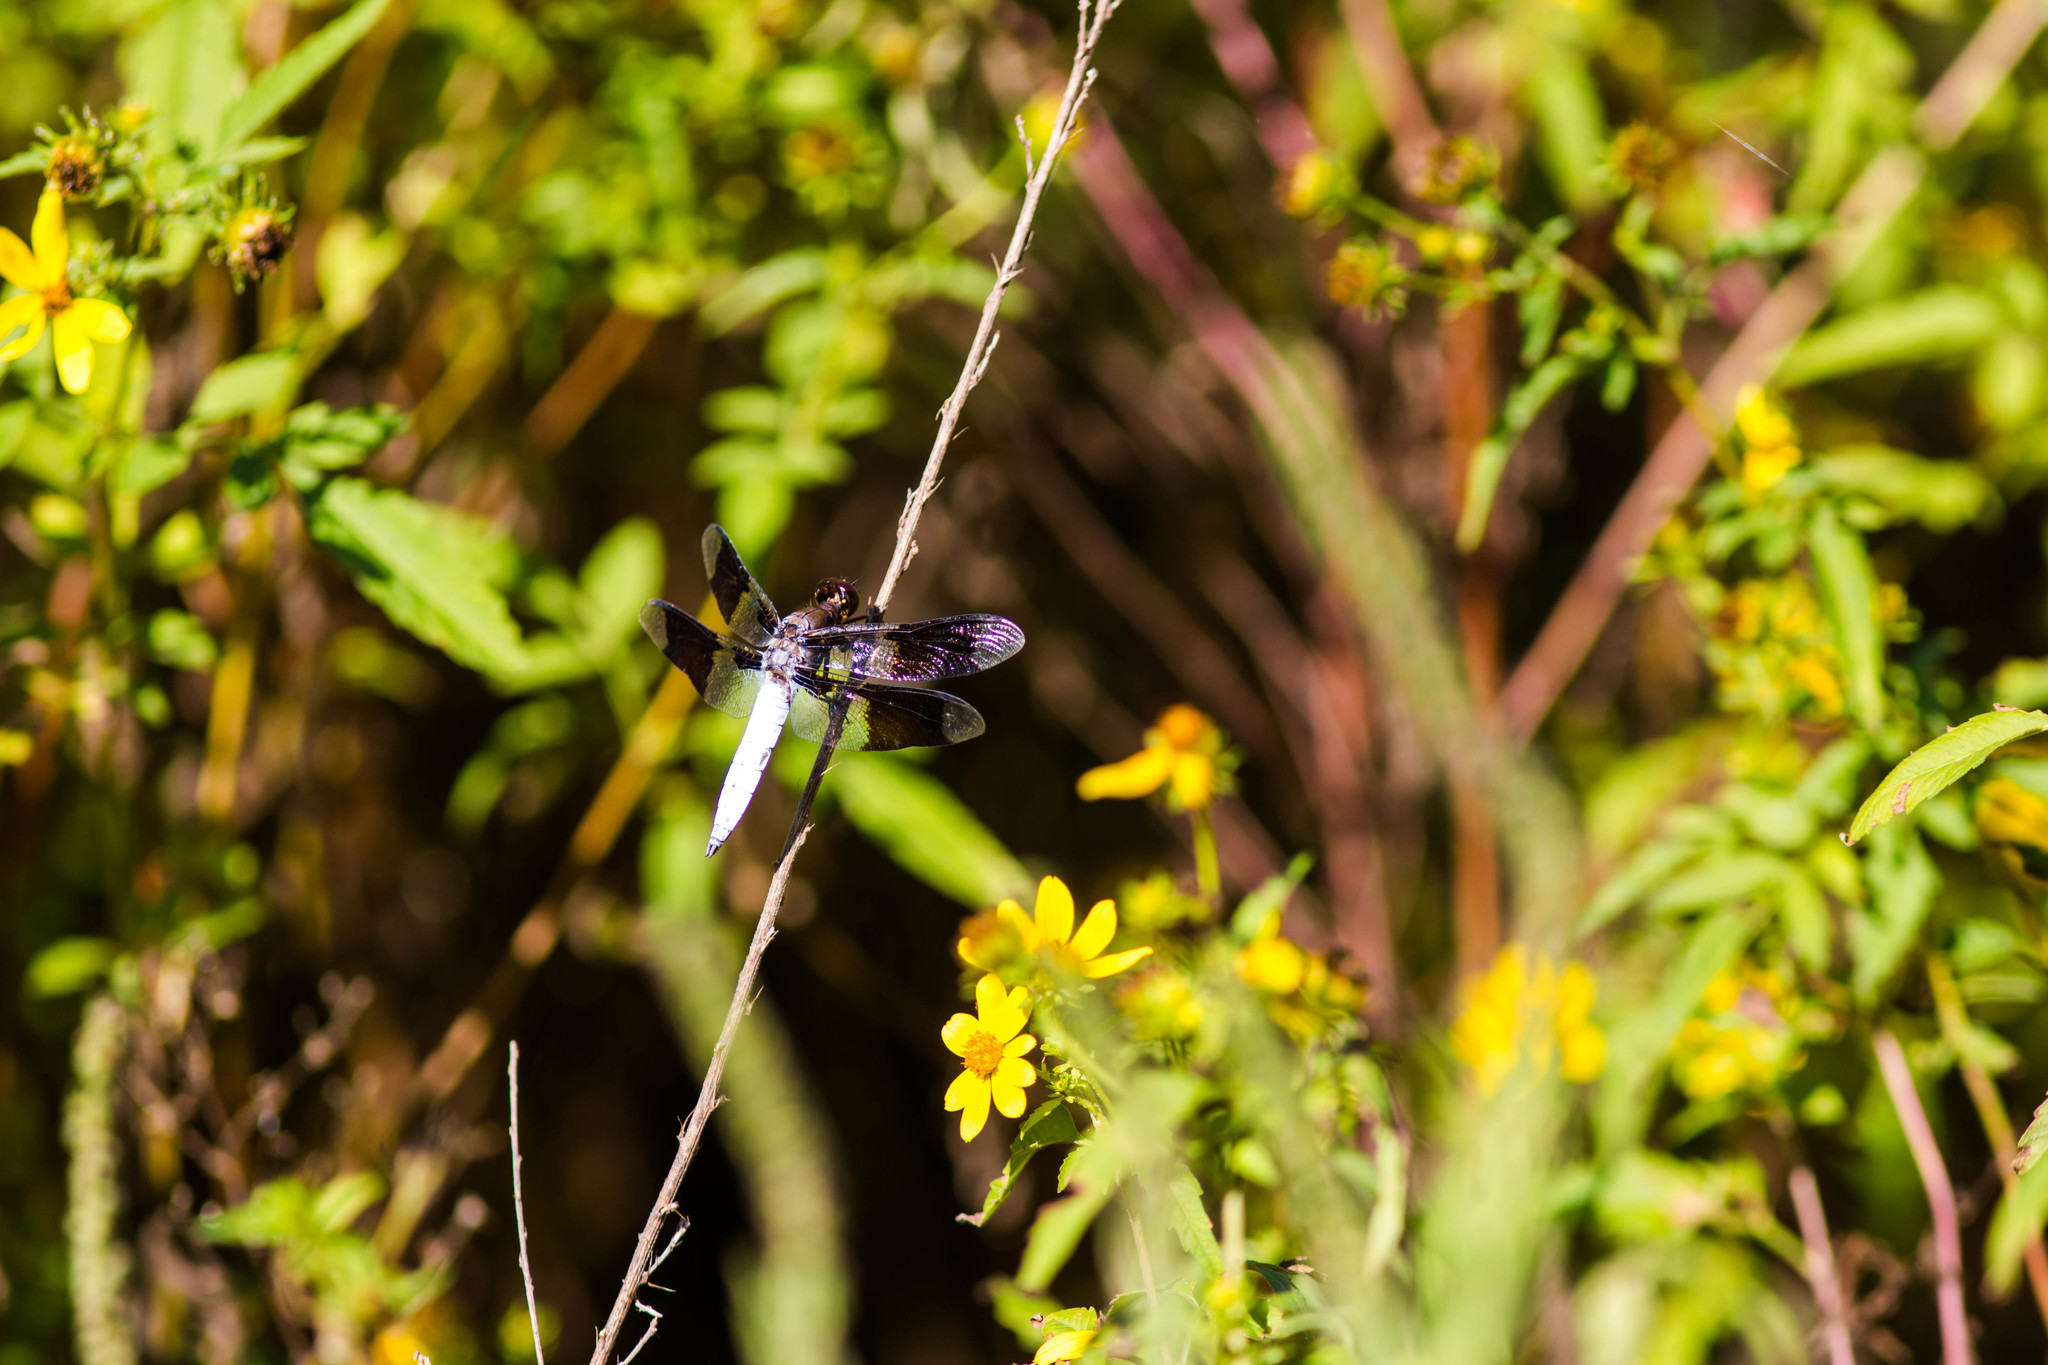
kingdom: Animalia
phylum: Arthropoda
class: Insecta
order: Odonata
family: Libellulidae
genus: Plathemis
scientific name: Plathemis lydia
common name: Common whitetail
